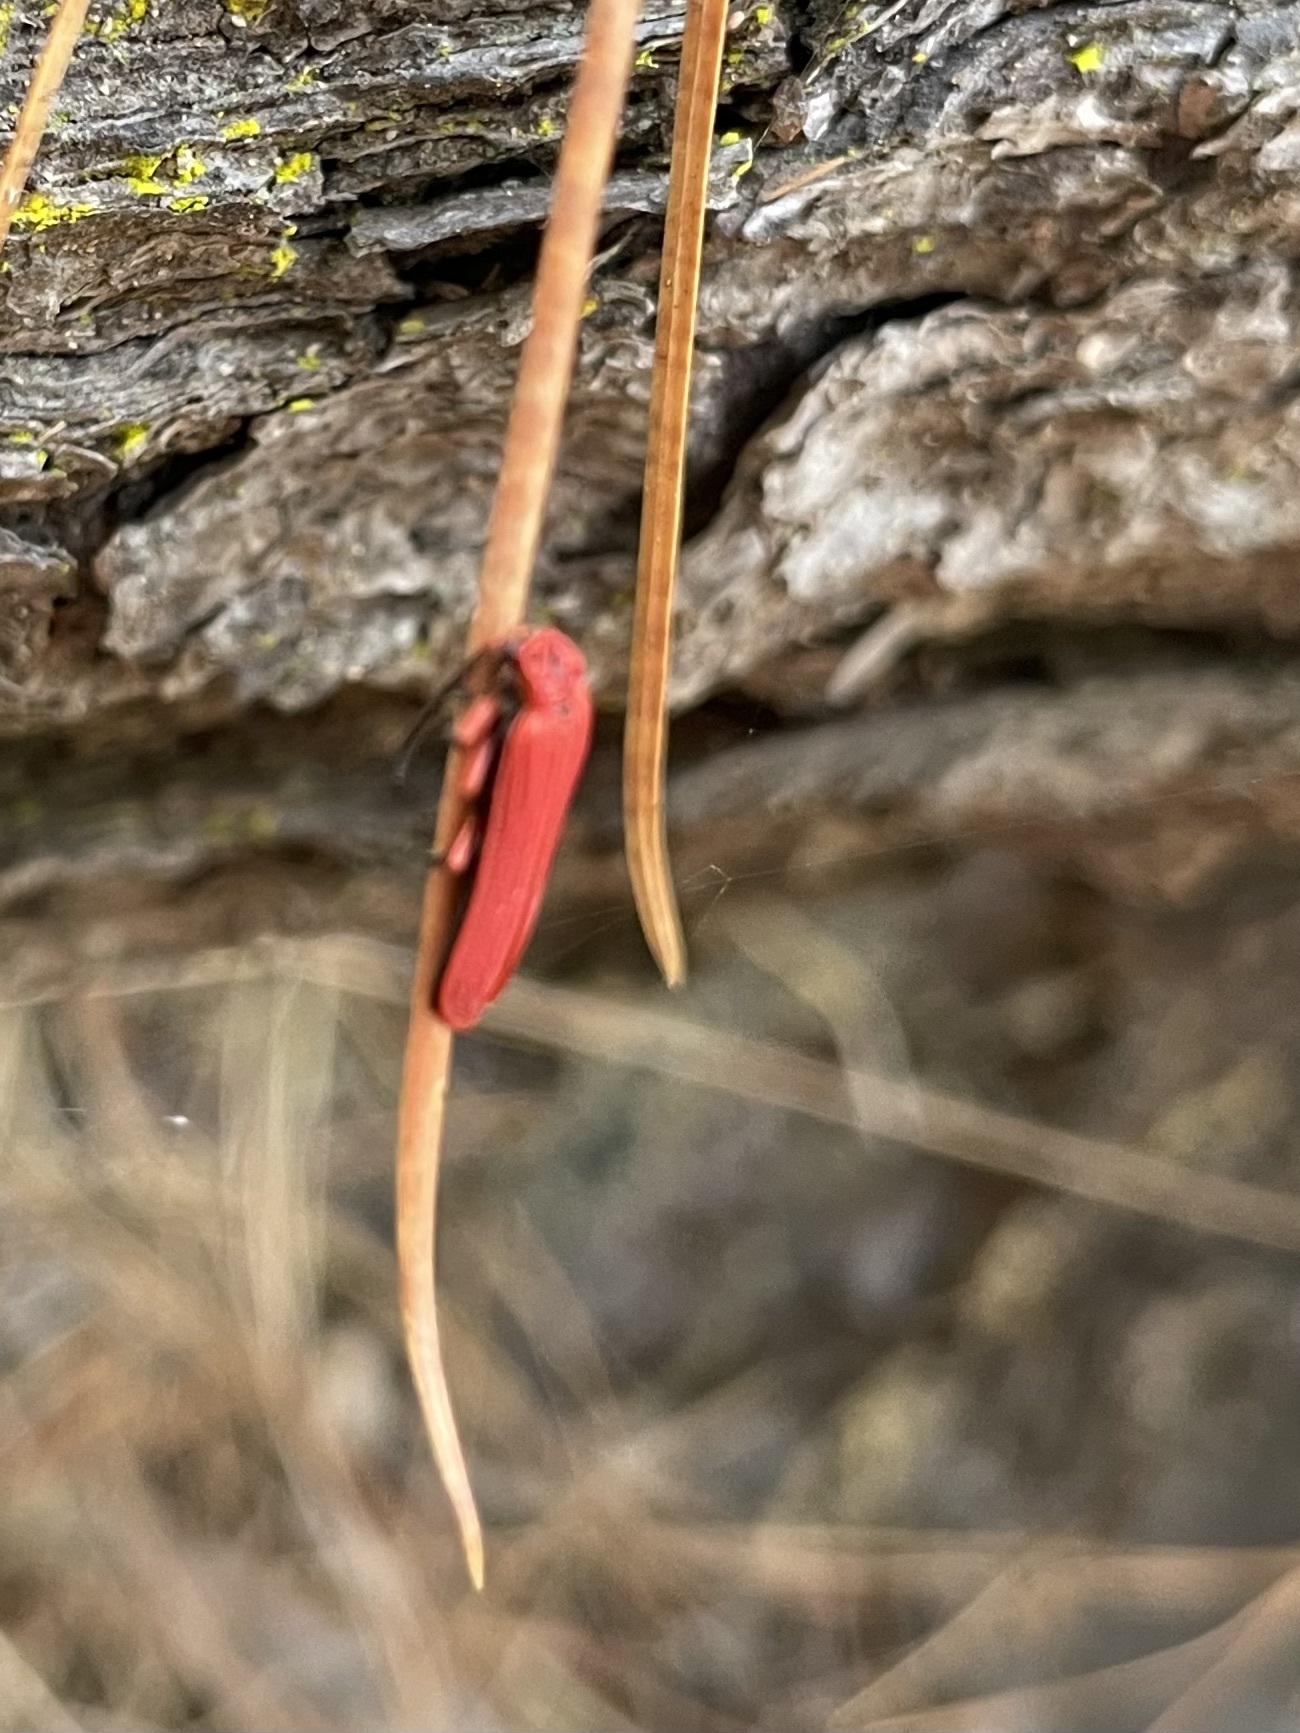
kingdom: Animalia
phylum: Arthropoda
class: Insecta
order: Coleoptera
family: Lycidae
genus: Dictyoptera
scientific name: Dictyoptera simplicipes
